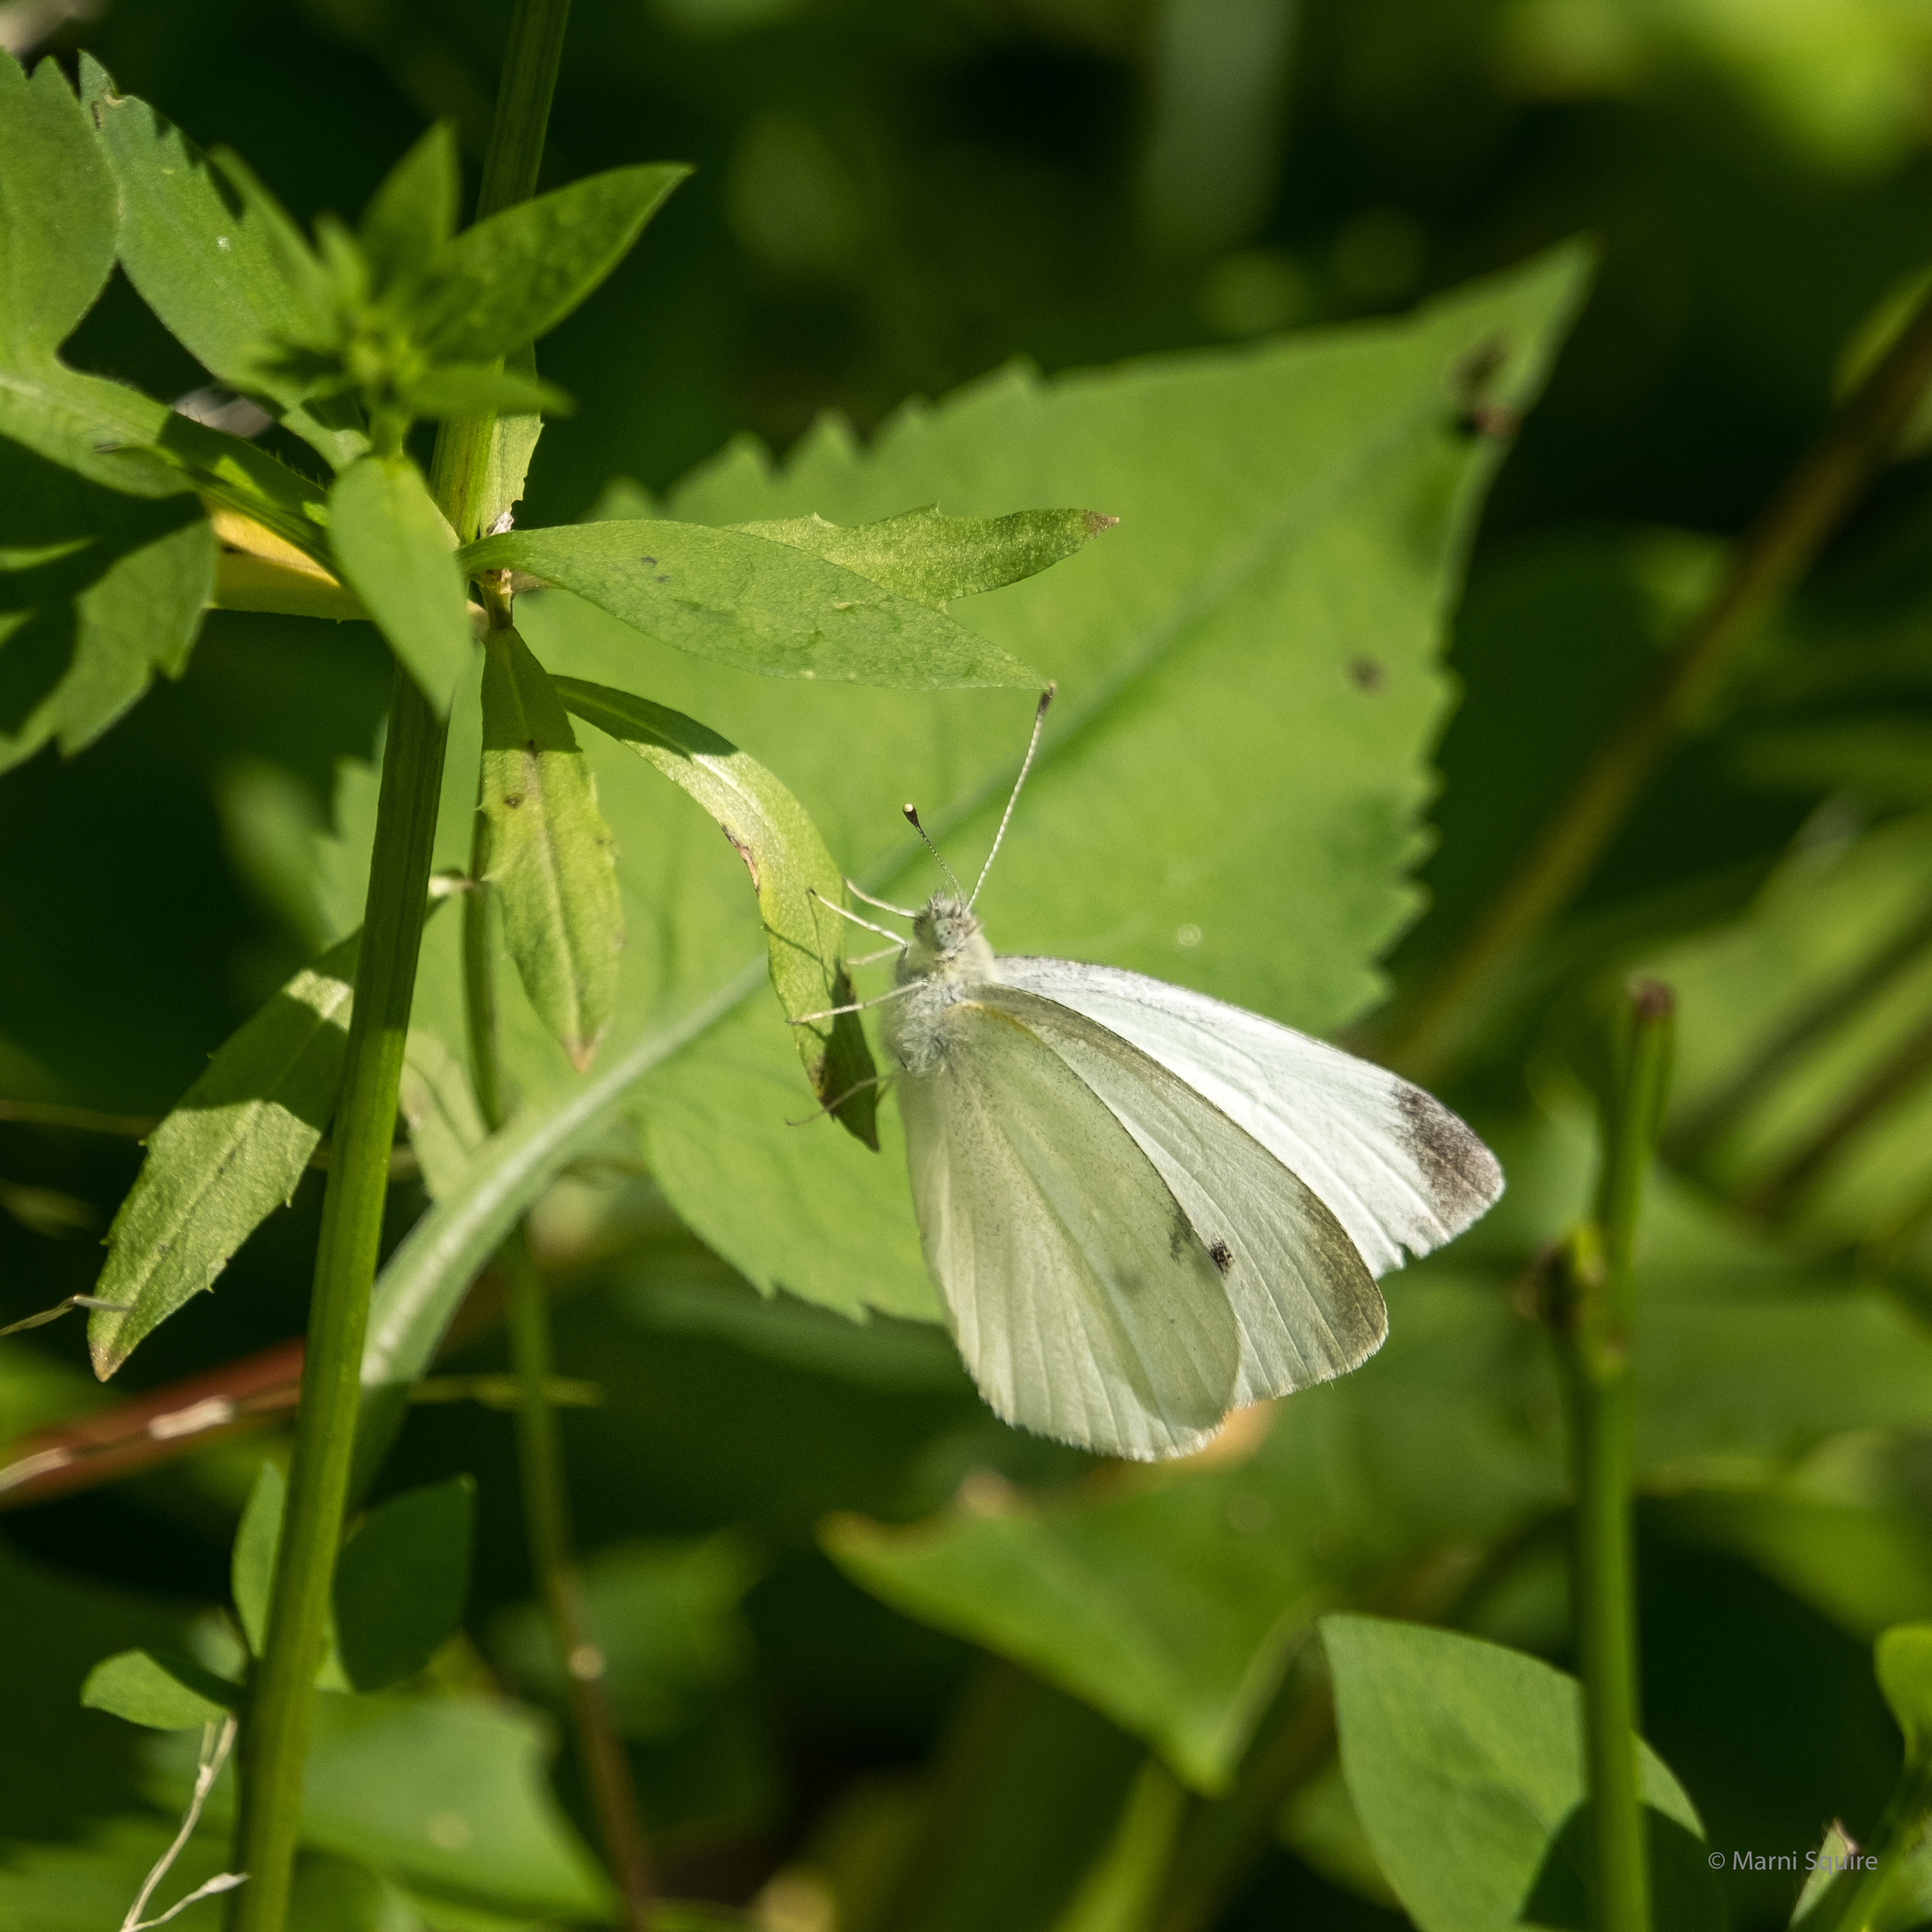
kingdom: Animalia
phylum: Arthropoda
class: Insecta
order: Lepidoptera
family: Pieridae
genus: Pieris
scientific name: Pieris rapae
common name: Small white
